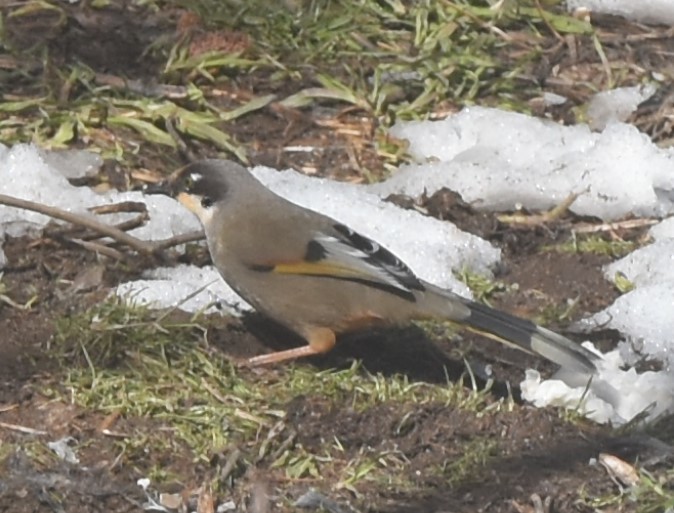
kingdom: Animalia
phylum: Chordata
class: Aves
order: Passeriformes
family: Leiothrichidae
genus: Trochalopteron
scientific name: Trochalopteron variegatum
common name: Variegated laughingthrush
